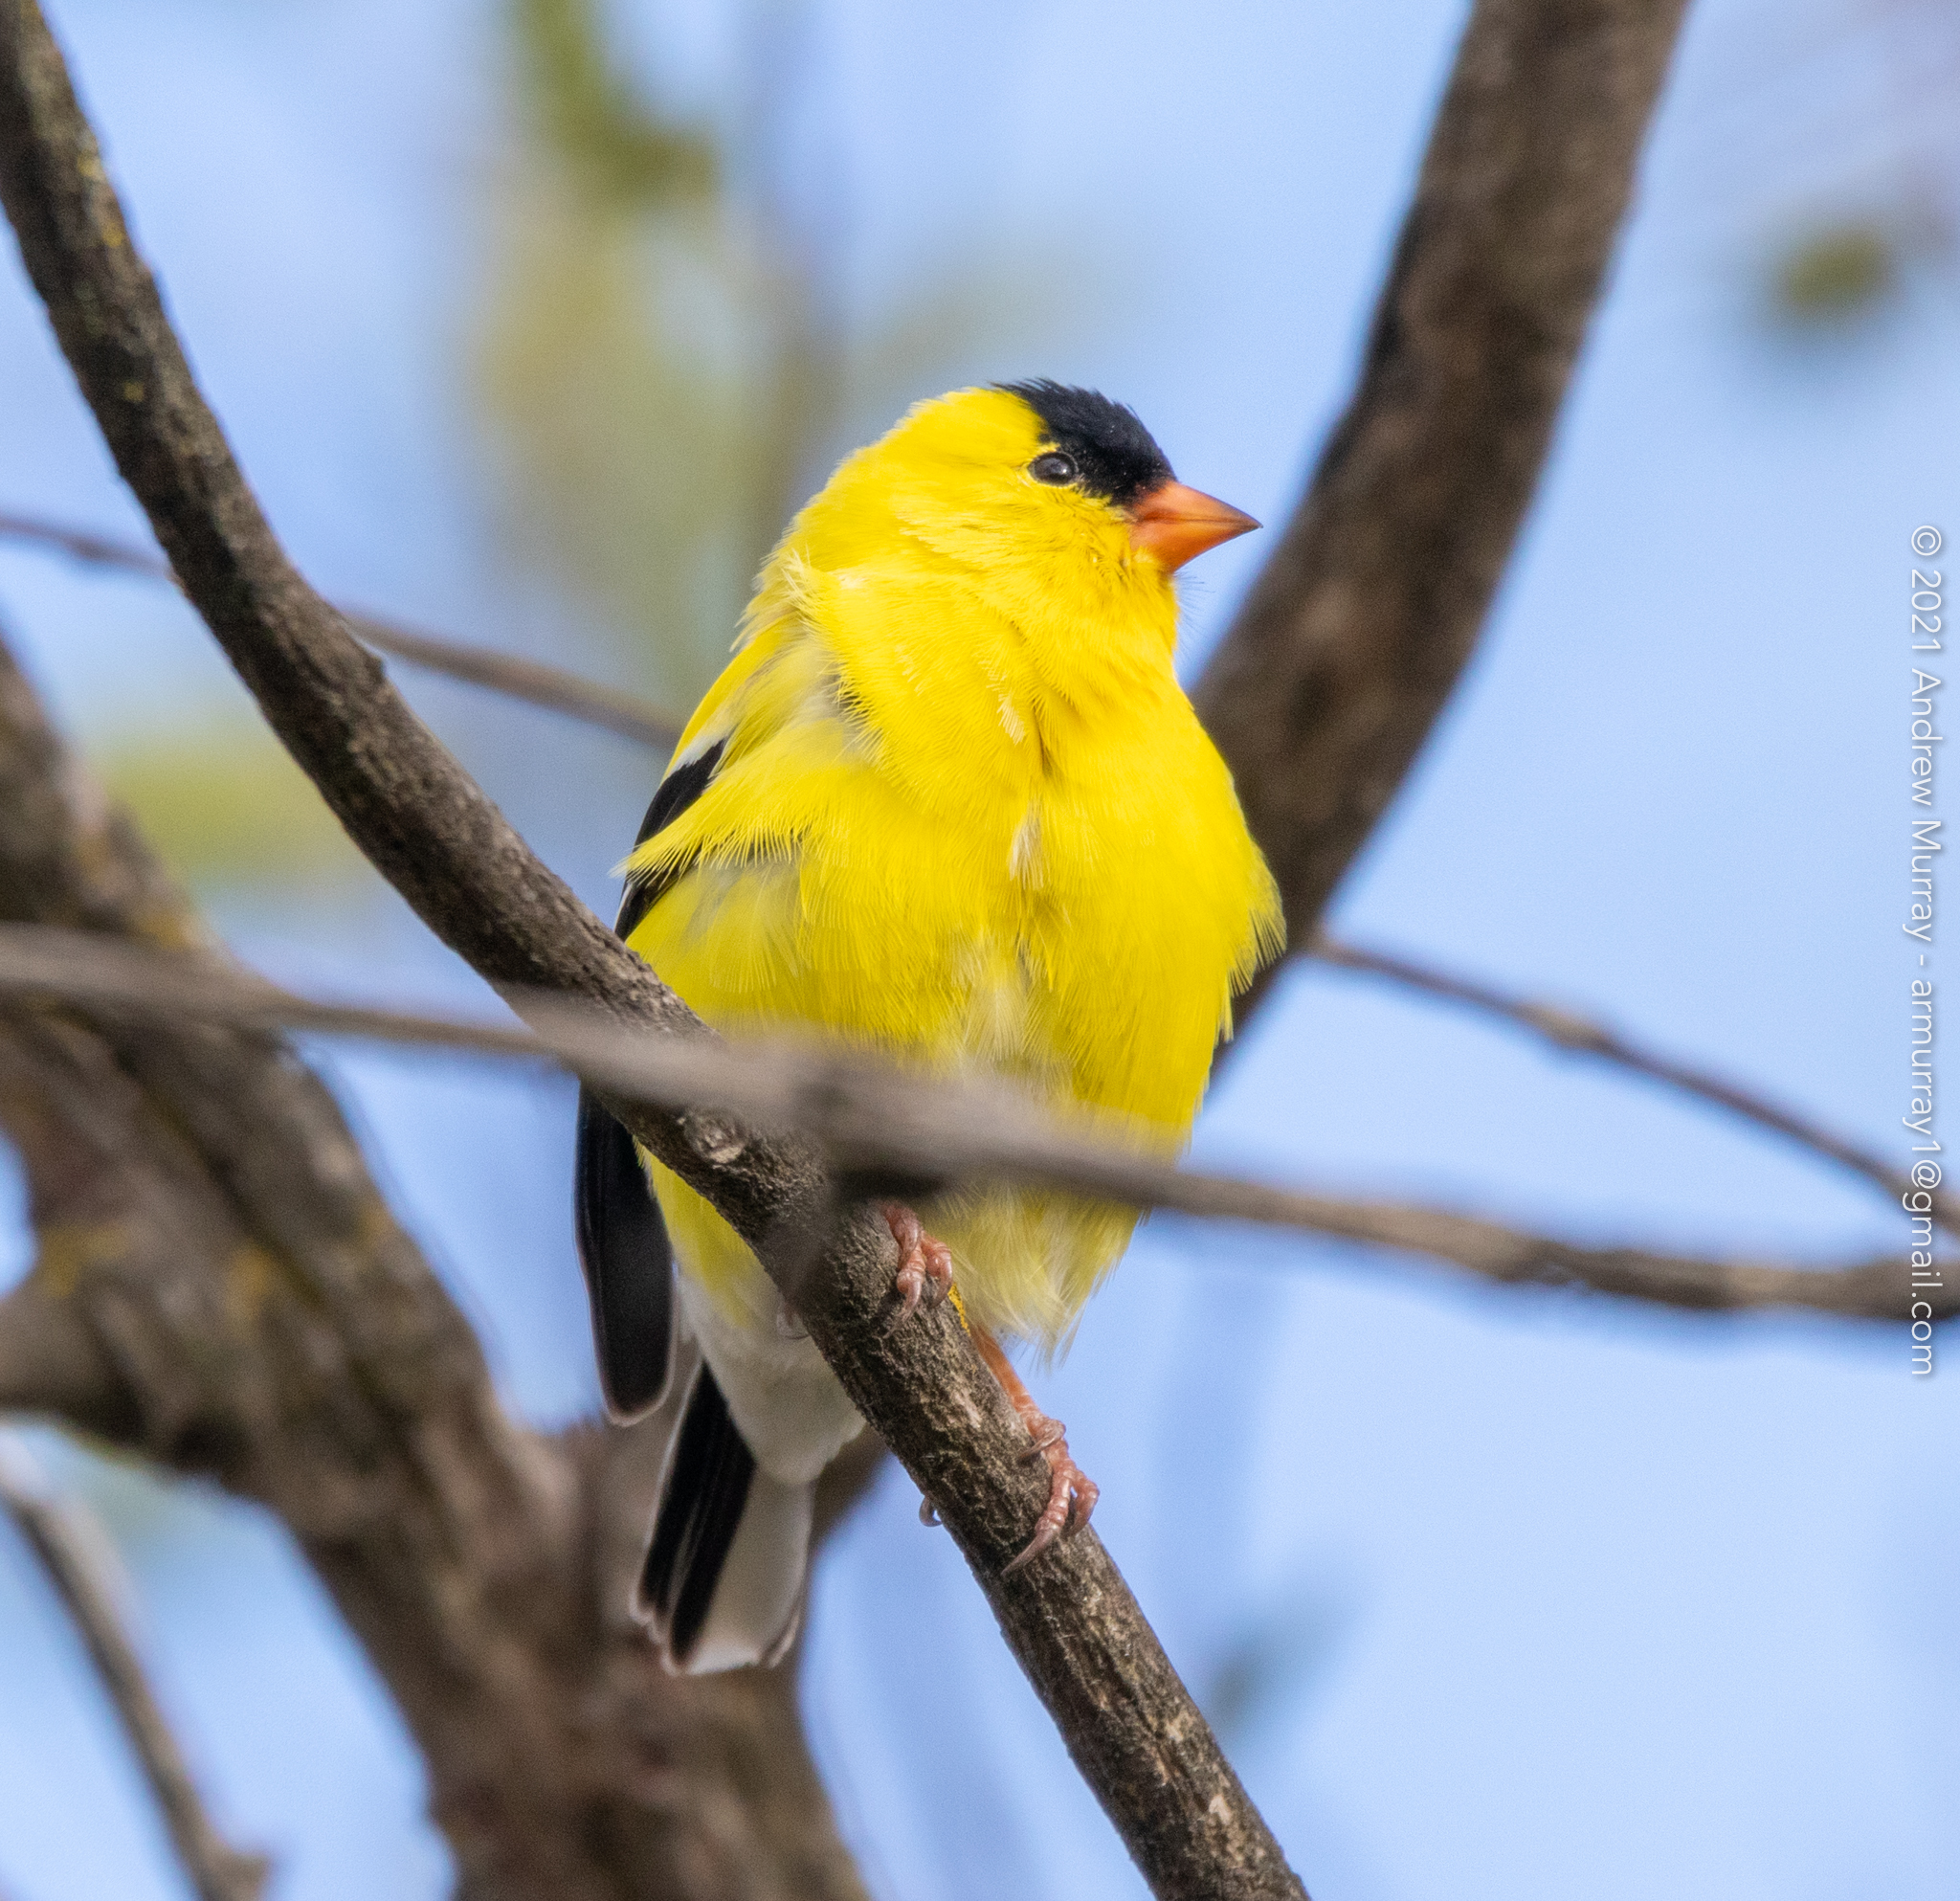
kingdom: Animalia
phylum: Chordata
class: Aves
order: Passeriformes
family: Fringillidae
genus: Spinus
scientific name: Spinus tristis
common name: American goldfinch
